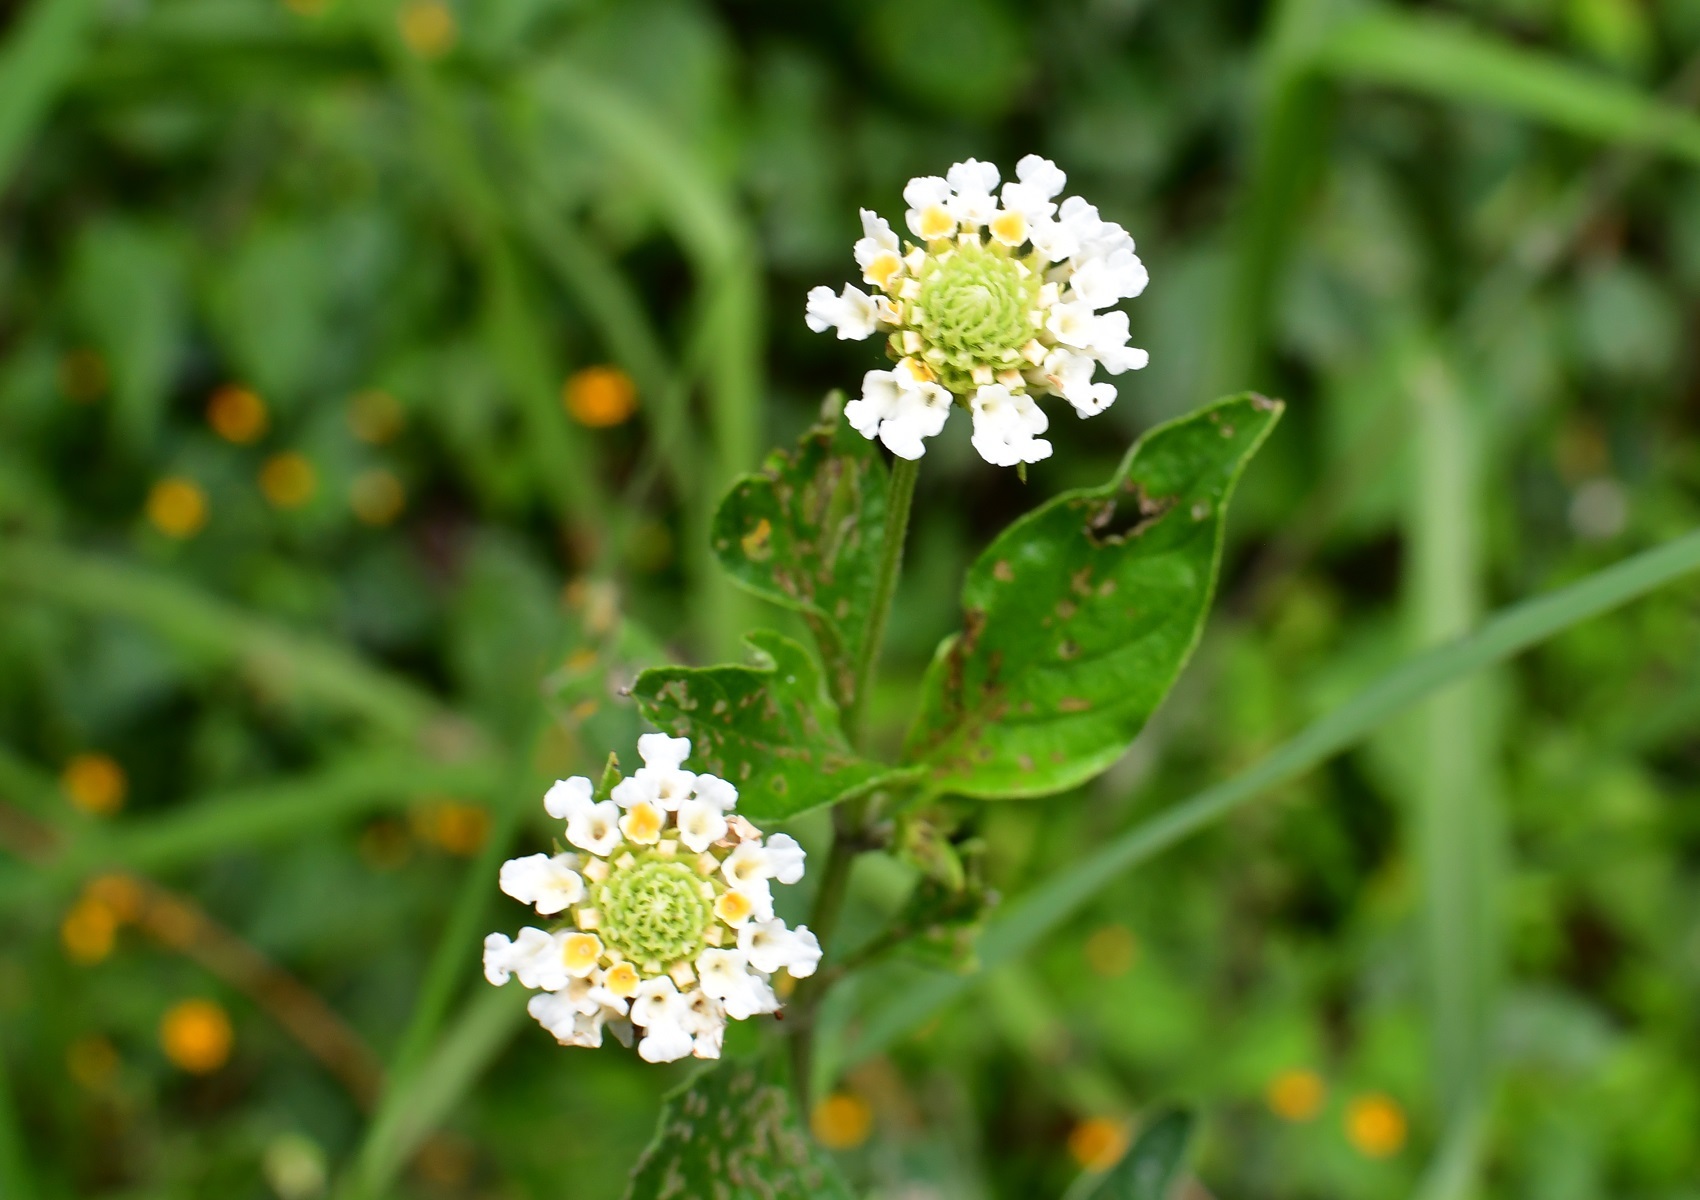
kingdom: Plantae
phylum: Tracheophyta
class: Magnoliopsida
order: Lamiales
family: Verbenaceae
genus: Lippia
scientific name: Lippia dulcis
